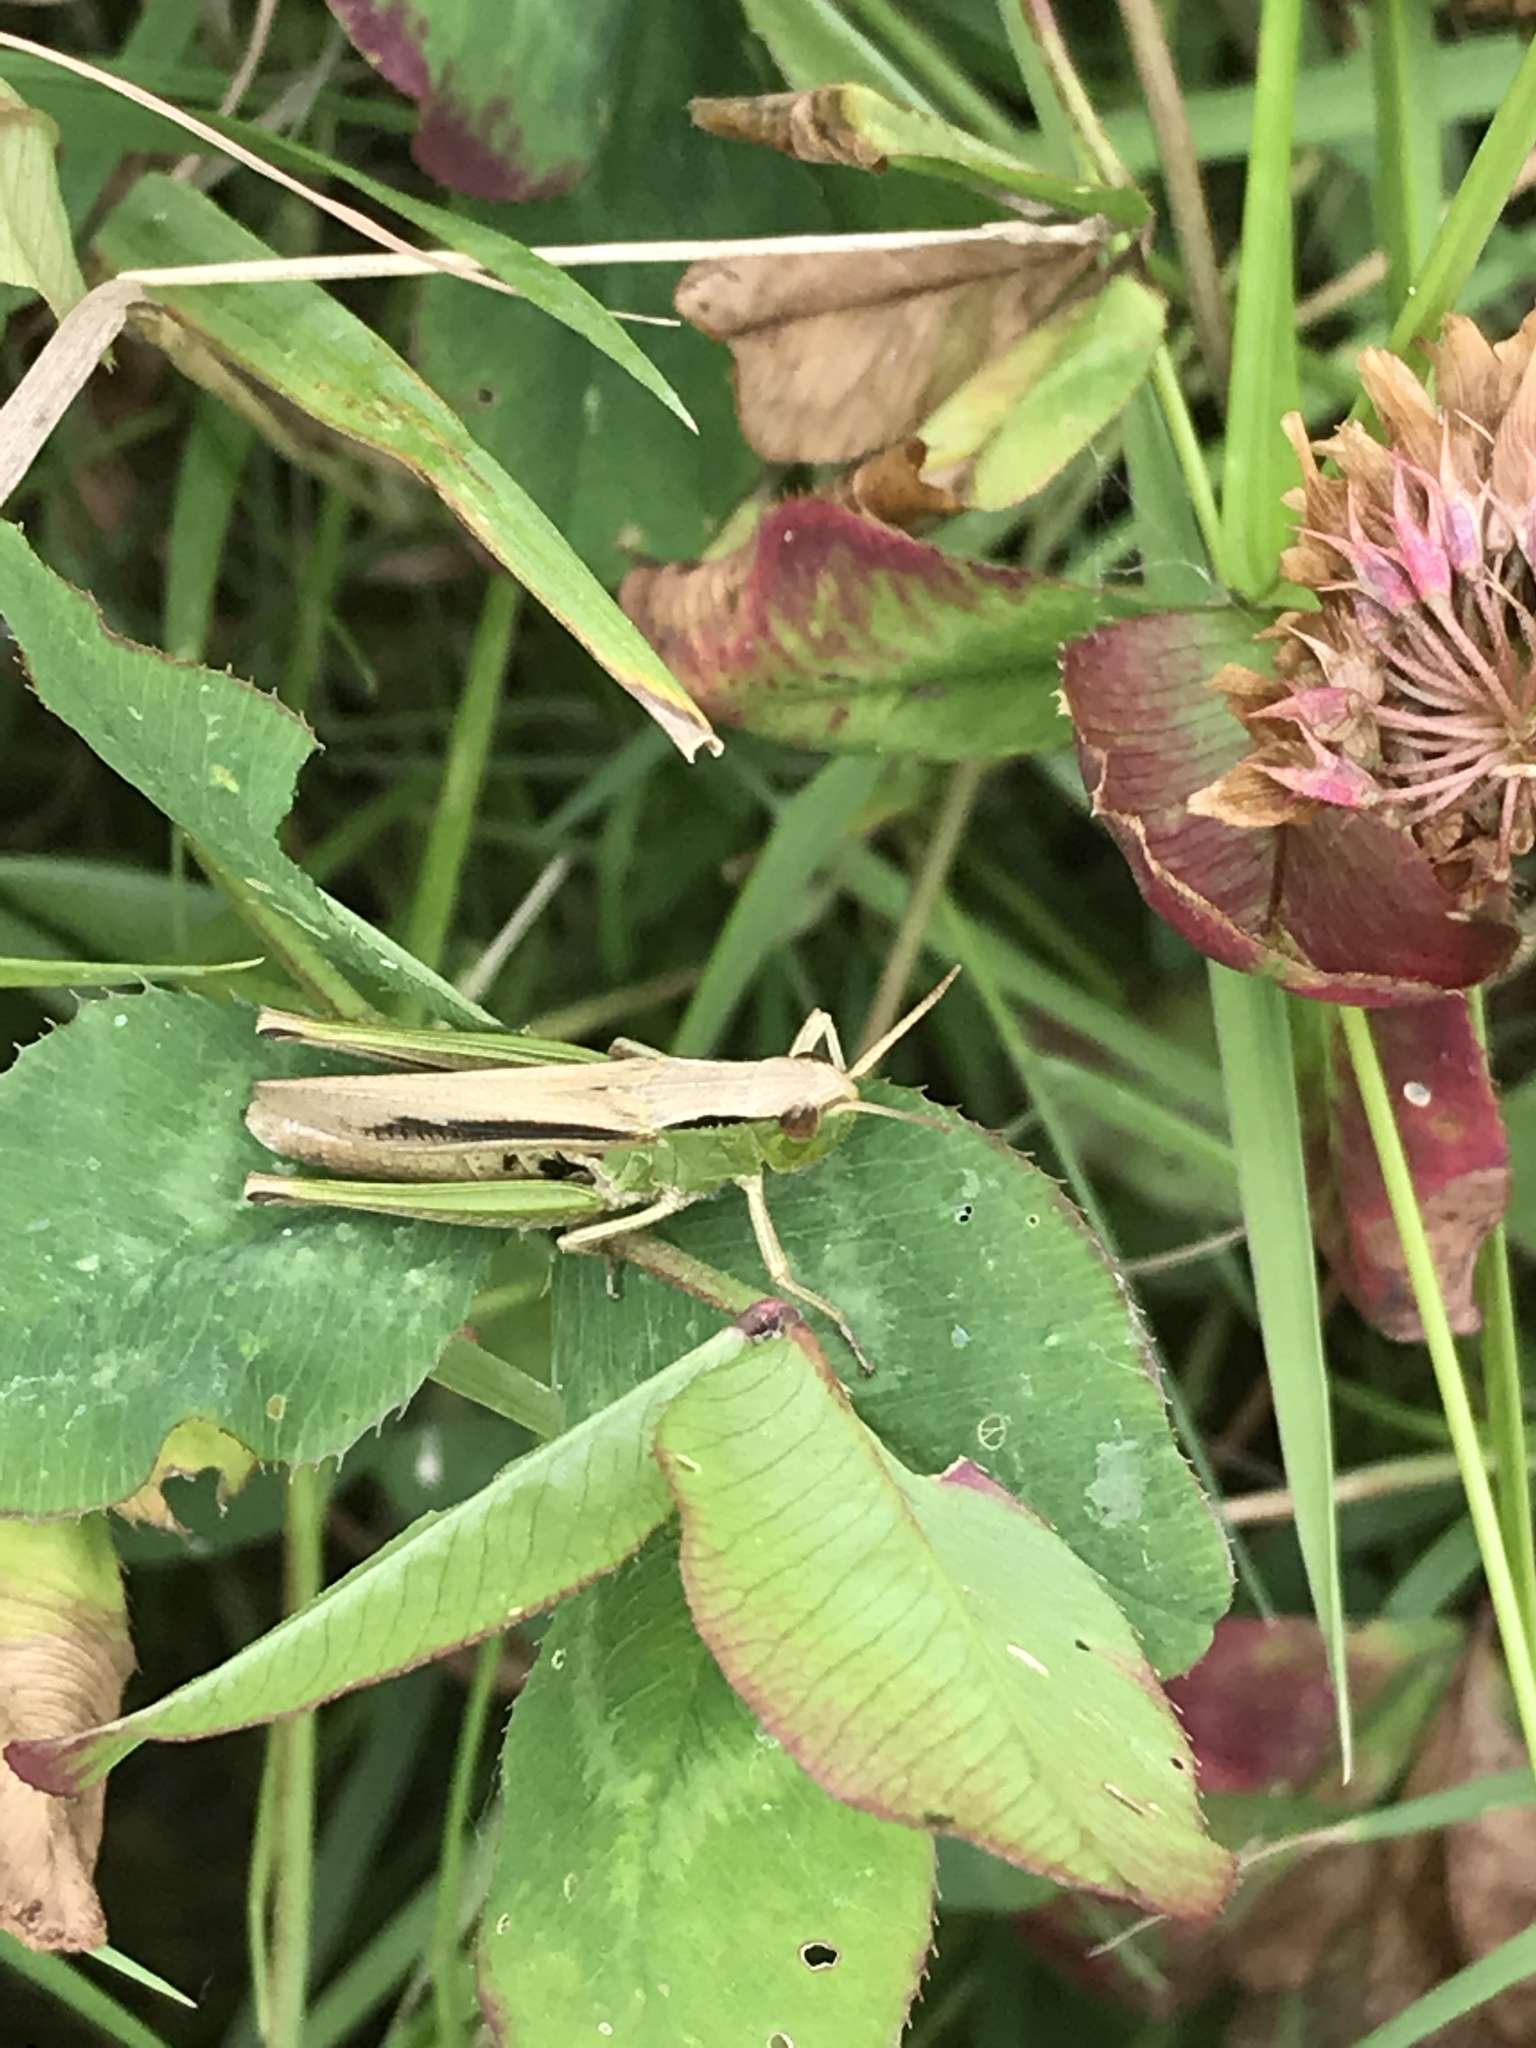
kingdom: Animalia
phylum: Arthropoda
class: Insecta
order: Orthoptera
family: Acrididae
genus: Chorthippus
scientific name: Chorthippus albomarginatus
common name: Lesser marsh grasshopper
